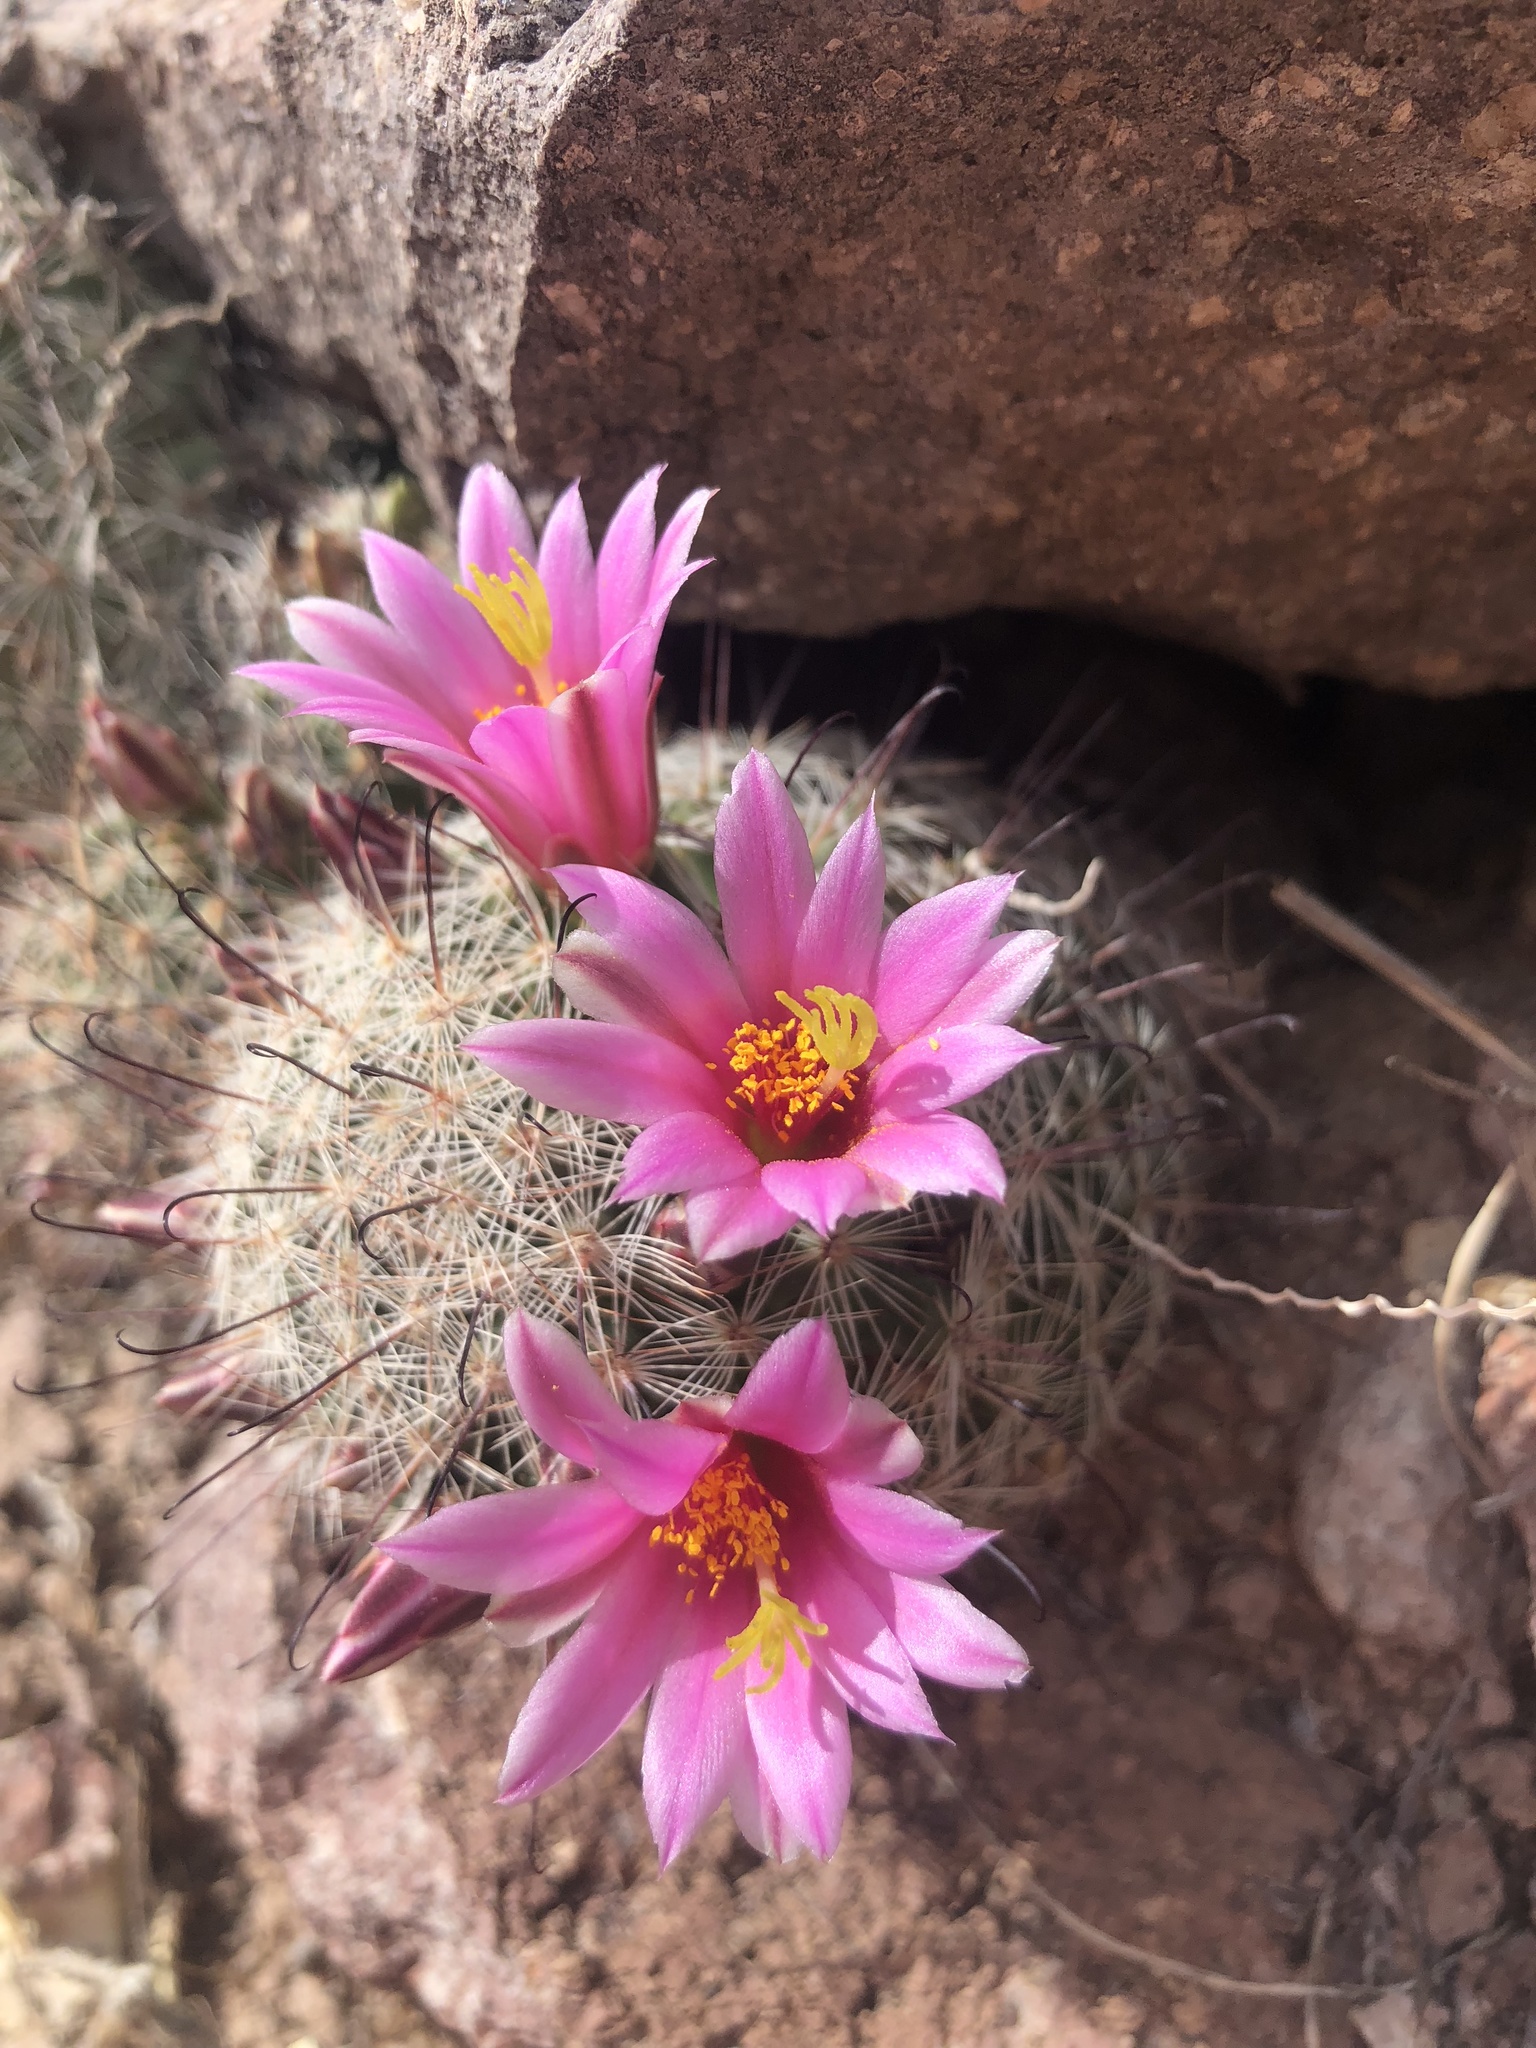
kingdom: Plantae
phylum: Tracheophyta
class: Magnoliopsida
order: Caryophyllales
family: Cactaceae
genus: Cochemiea
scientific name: Cochemiea grahamii
